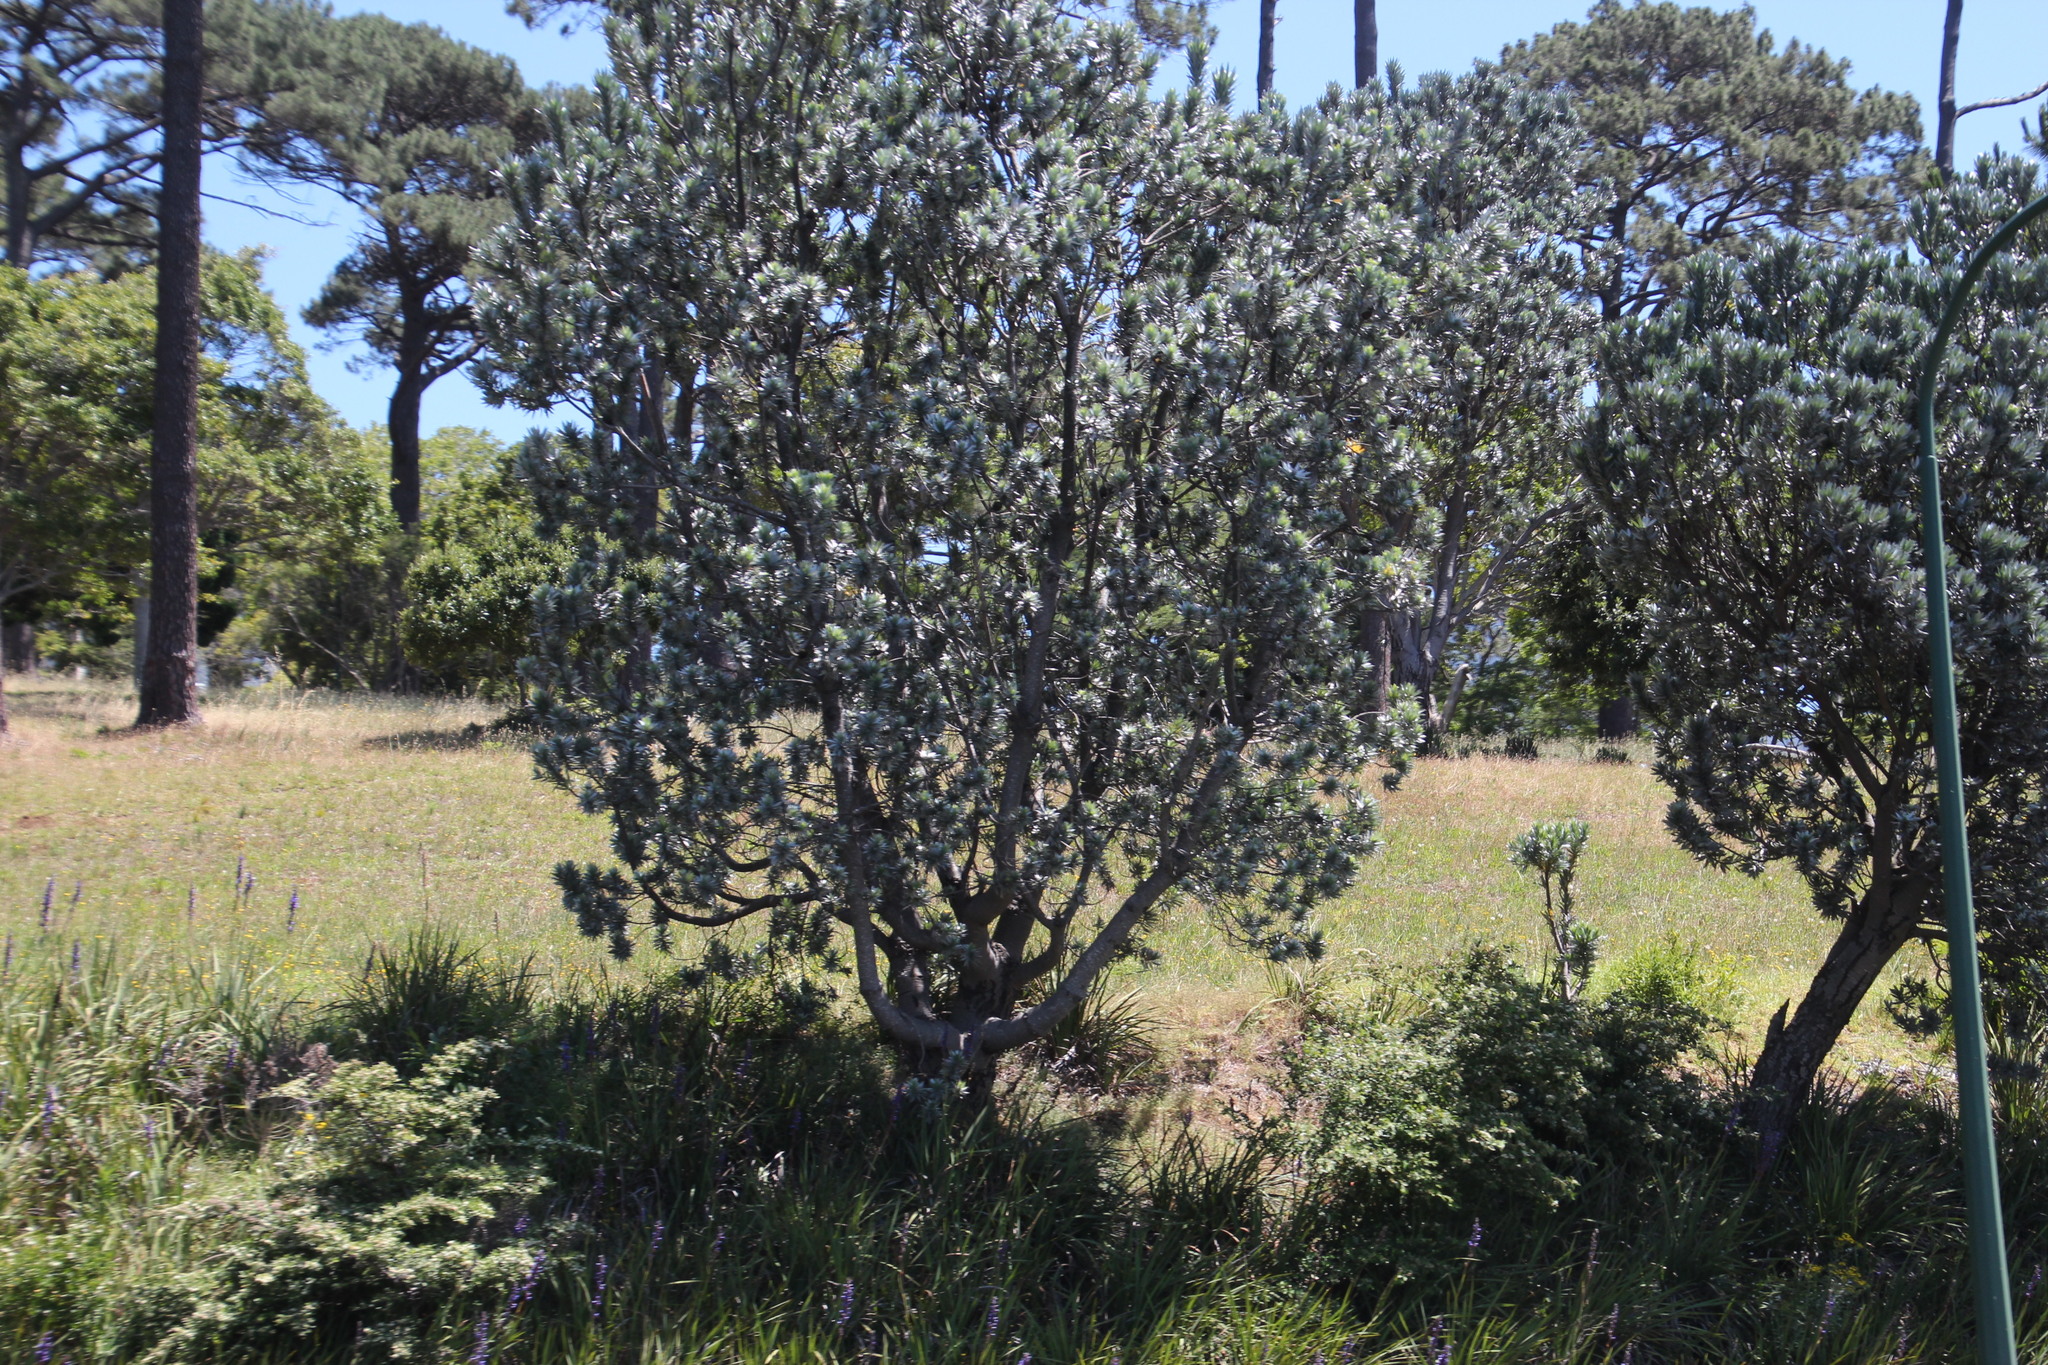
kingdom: Plantae
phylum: Tracheophyta
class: Magnoliopsida
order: Proteales
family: Proteaceae
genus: Leucadendron
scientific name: Leucadendron argenteum
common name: Cape silver tree
